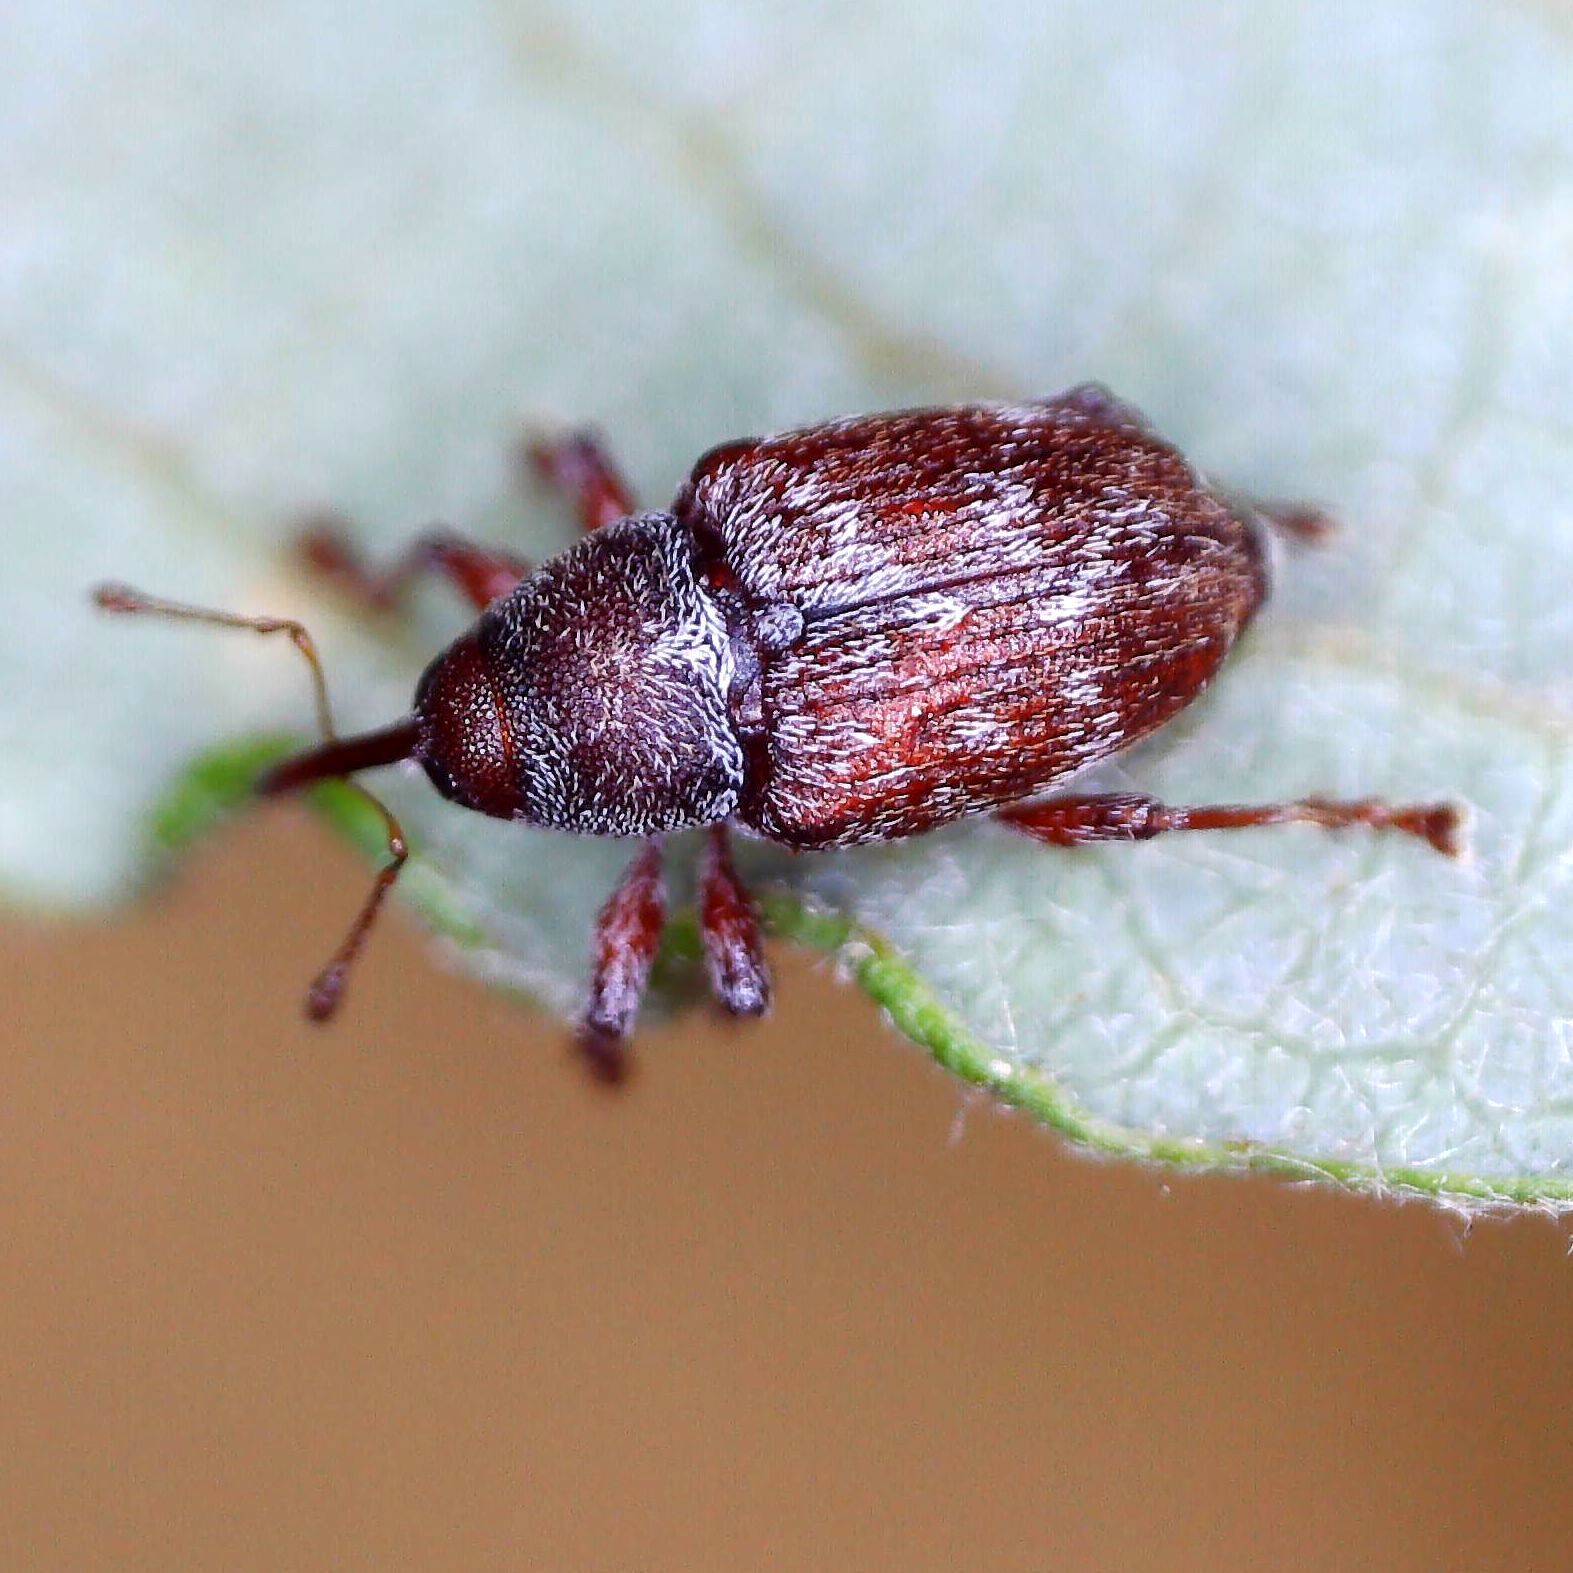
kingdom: Animalia
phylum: Arthropoda
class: Insecta
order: Coleoptera
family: Curculionidae
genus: Curculio
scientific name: Curculio rubidus
